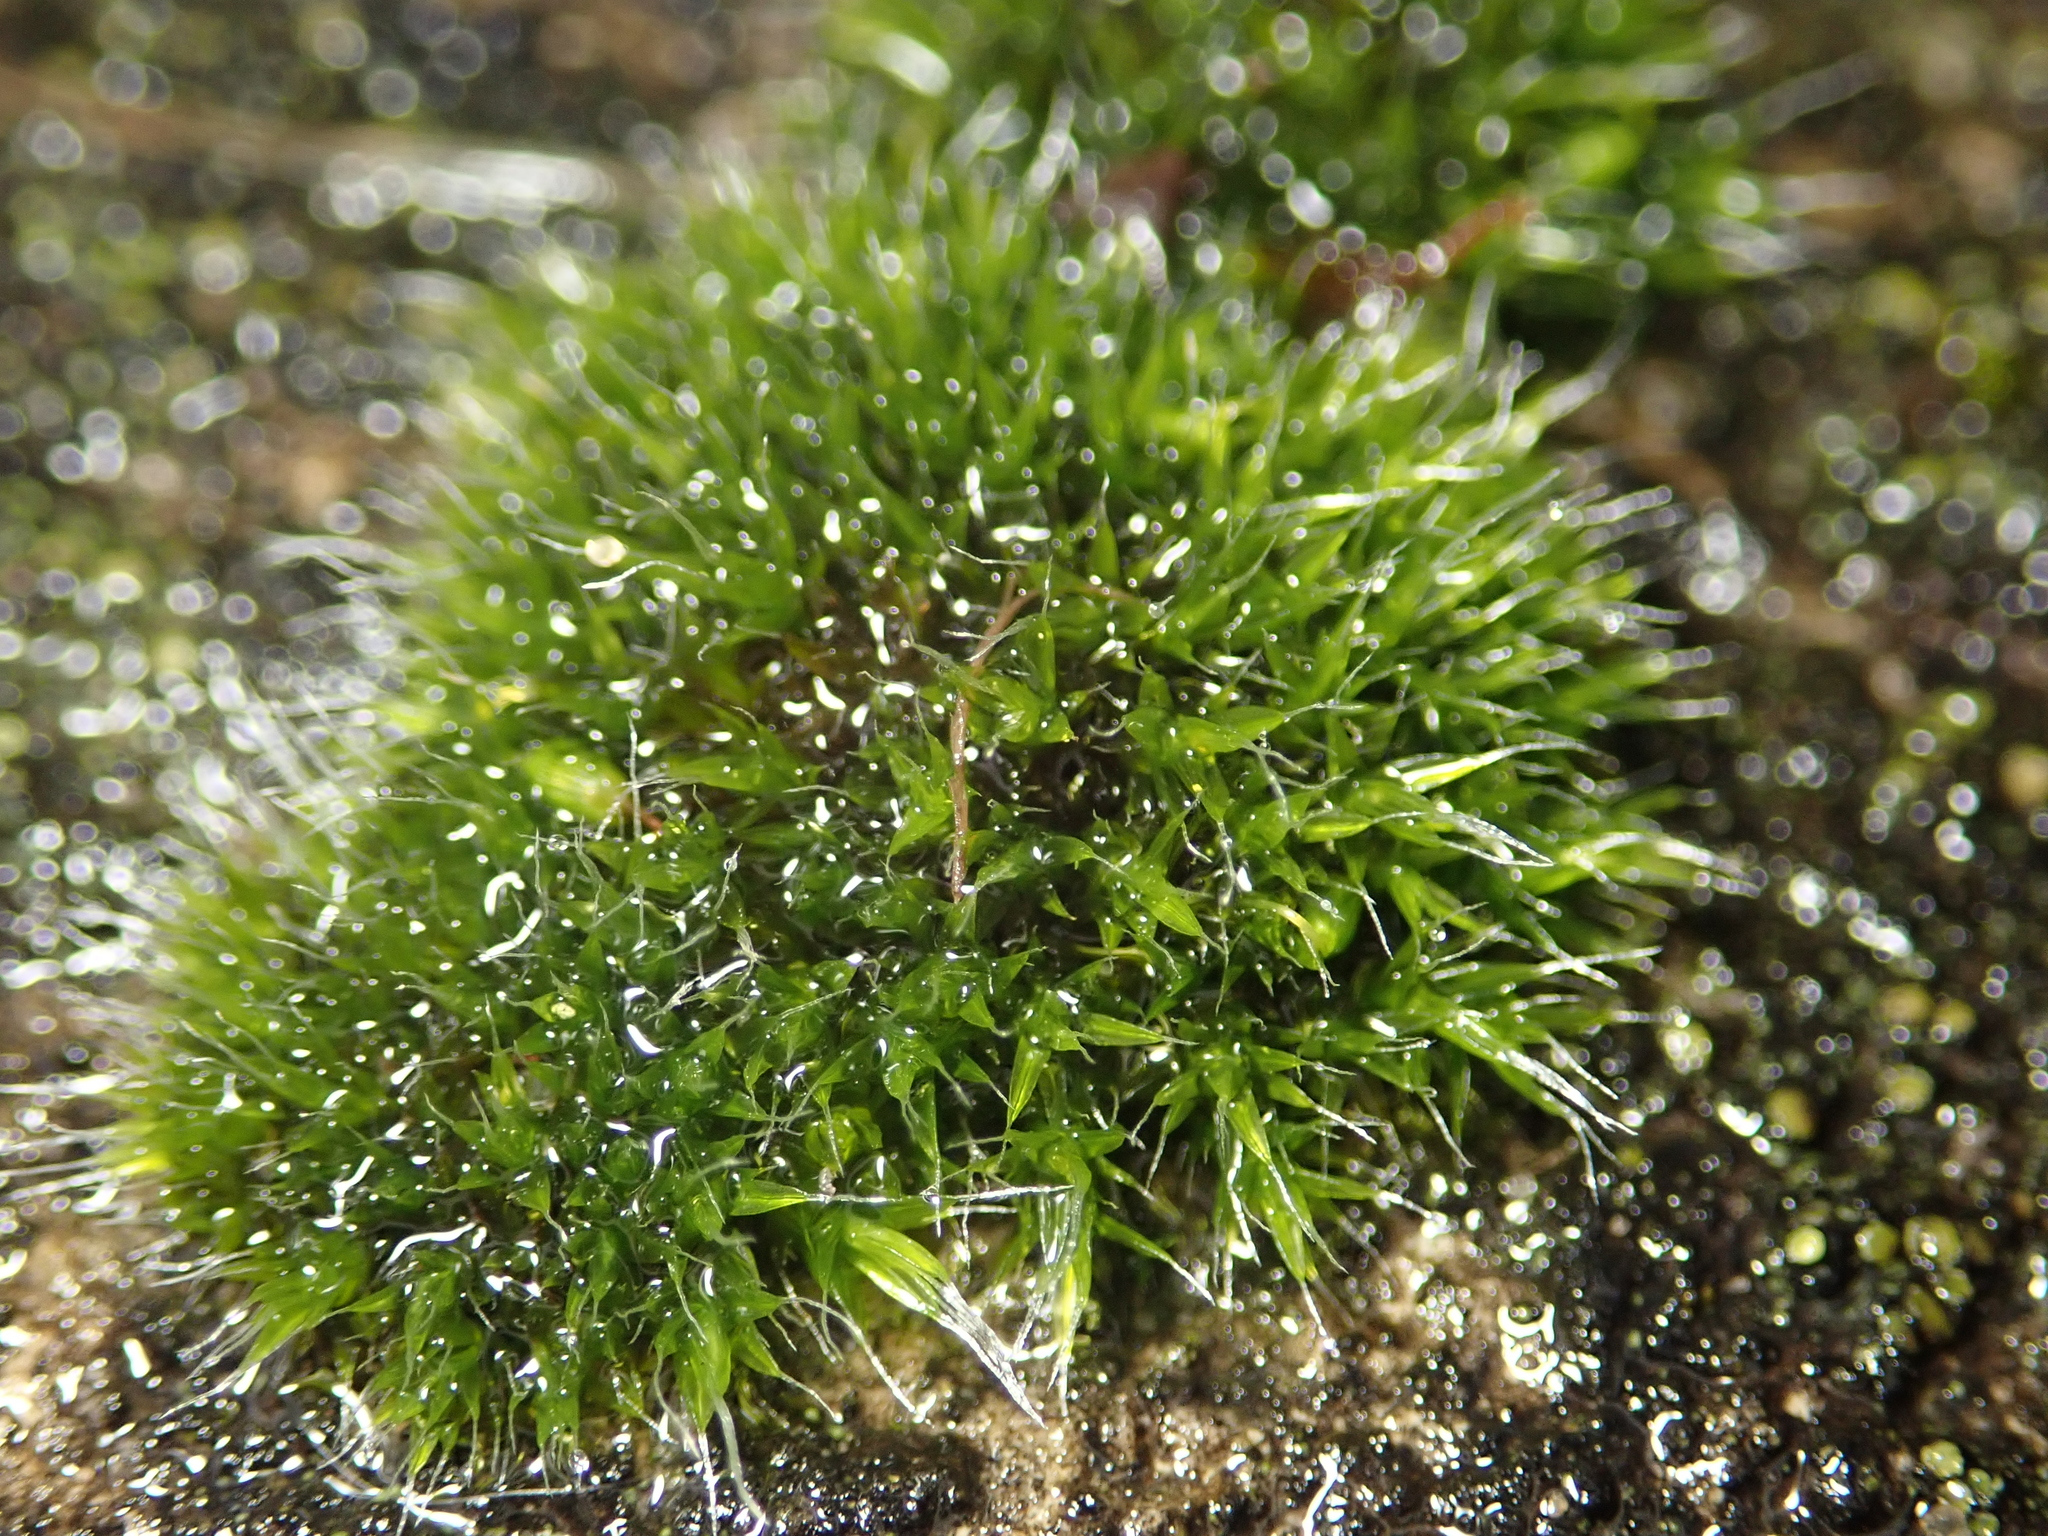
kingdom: Plantae
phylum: Bryophyta
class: Bryopsida
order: Grimmiales
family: Grimmiaceae
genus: Grimmia
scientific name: Grimmia pulvinata
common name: Grey-cushioned grimmia
